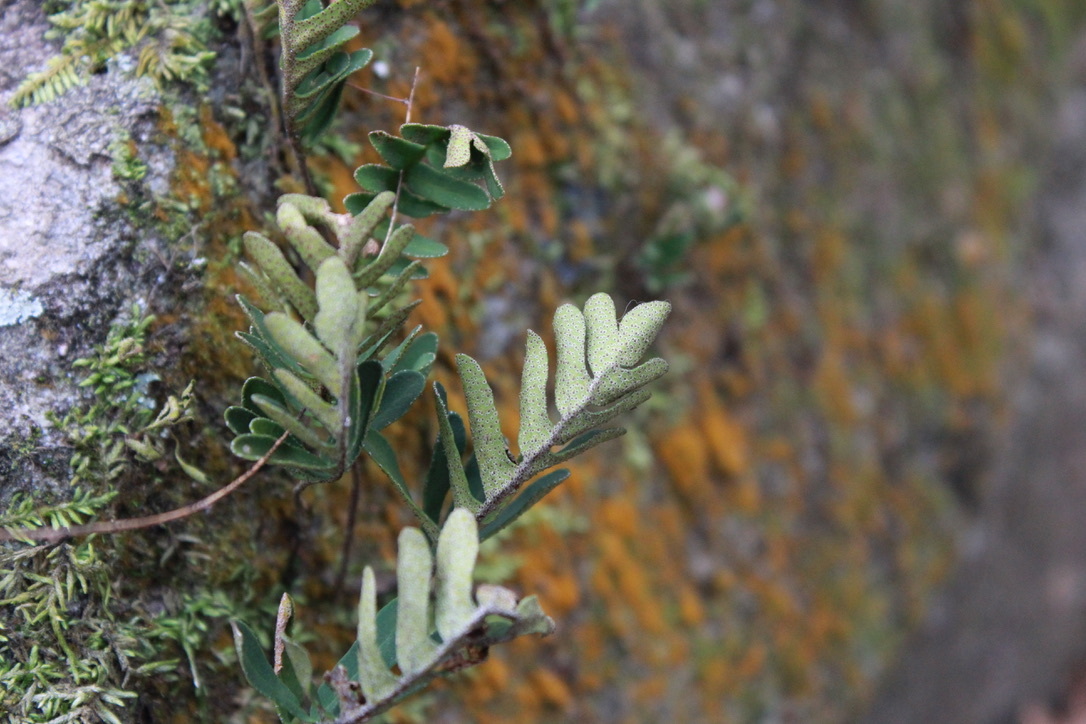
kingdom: Plantae
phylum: Tracheophyta
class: Polypodiopsida
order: Polypodiales
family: Polypodiaceae
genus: Pleopeltis
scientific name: Pleopeltis michauxiana
